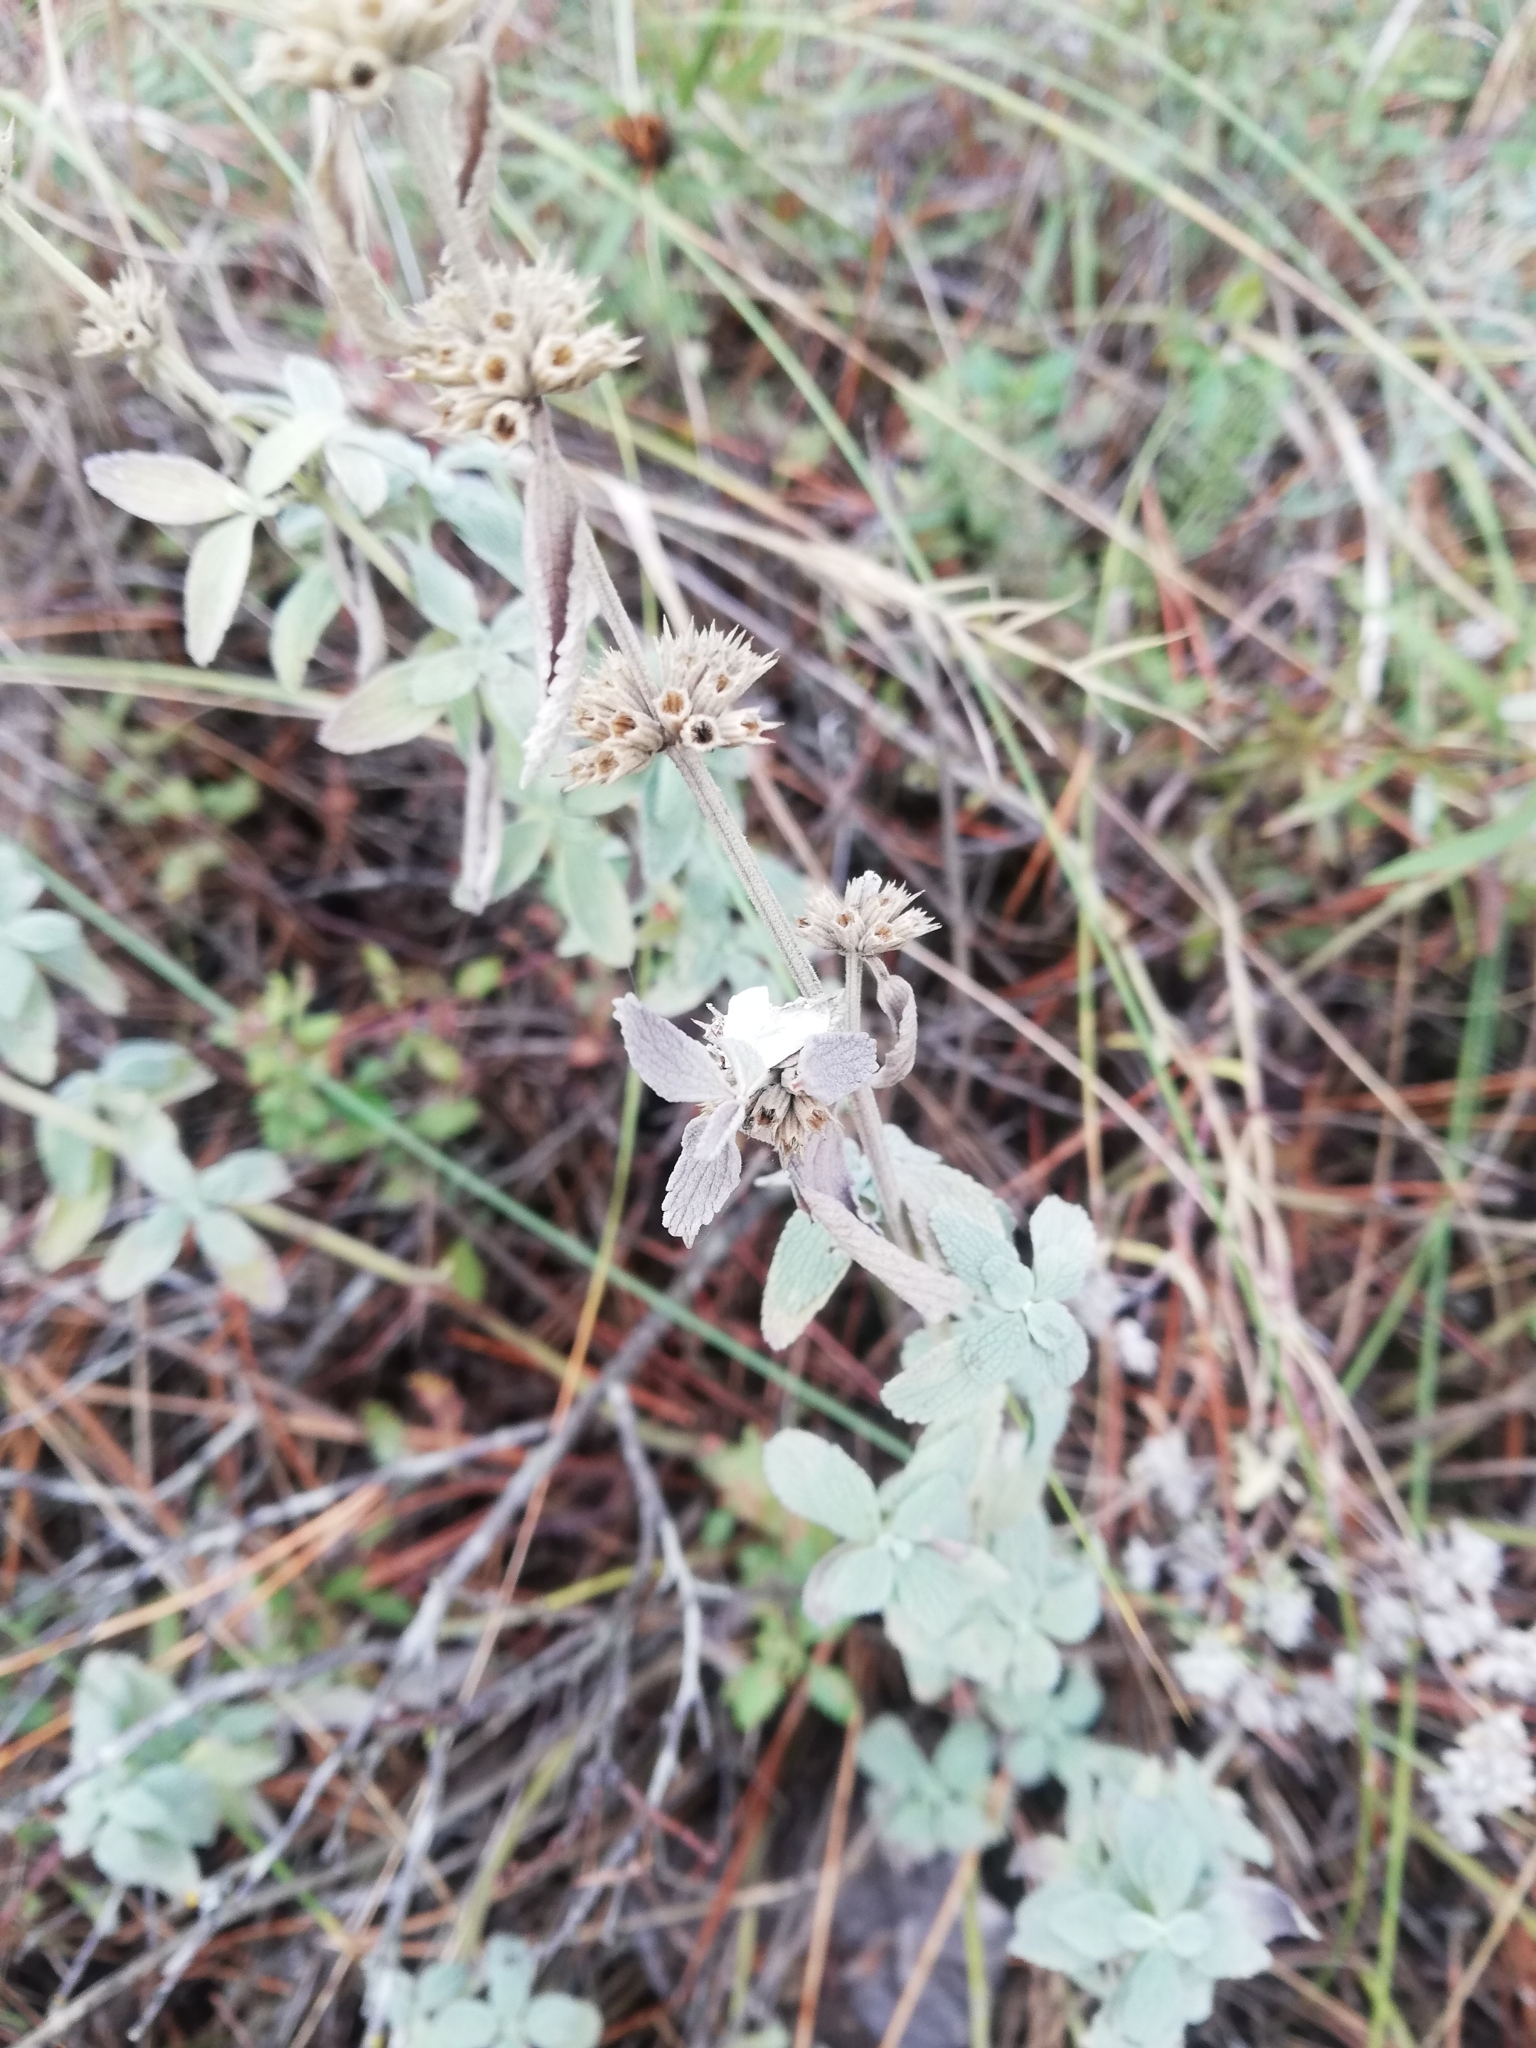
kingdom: Plantae
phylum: Tracheophyta
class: Magnoliopsida
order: Lamiales
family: Lamiaceae
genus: Marrubium
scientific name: Marrubium peregrinum
